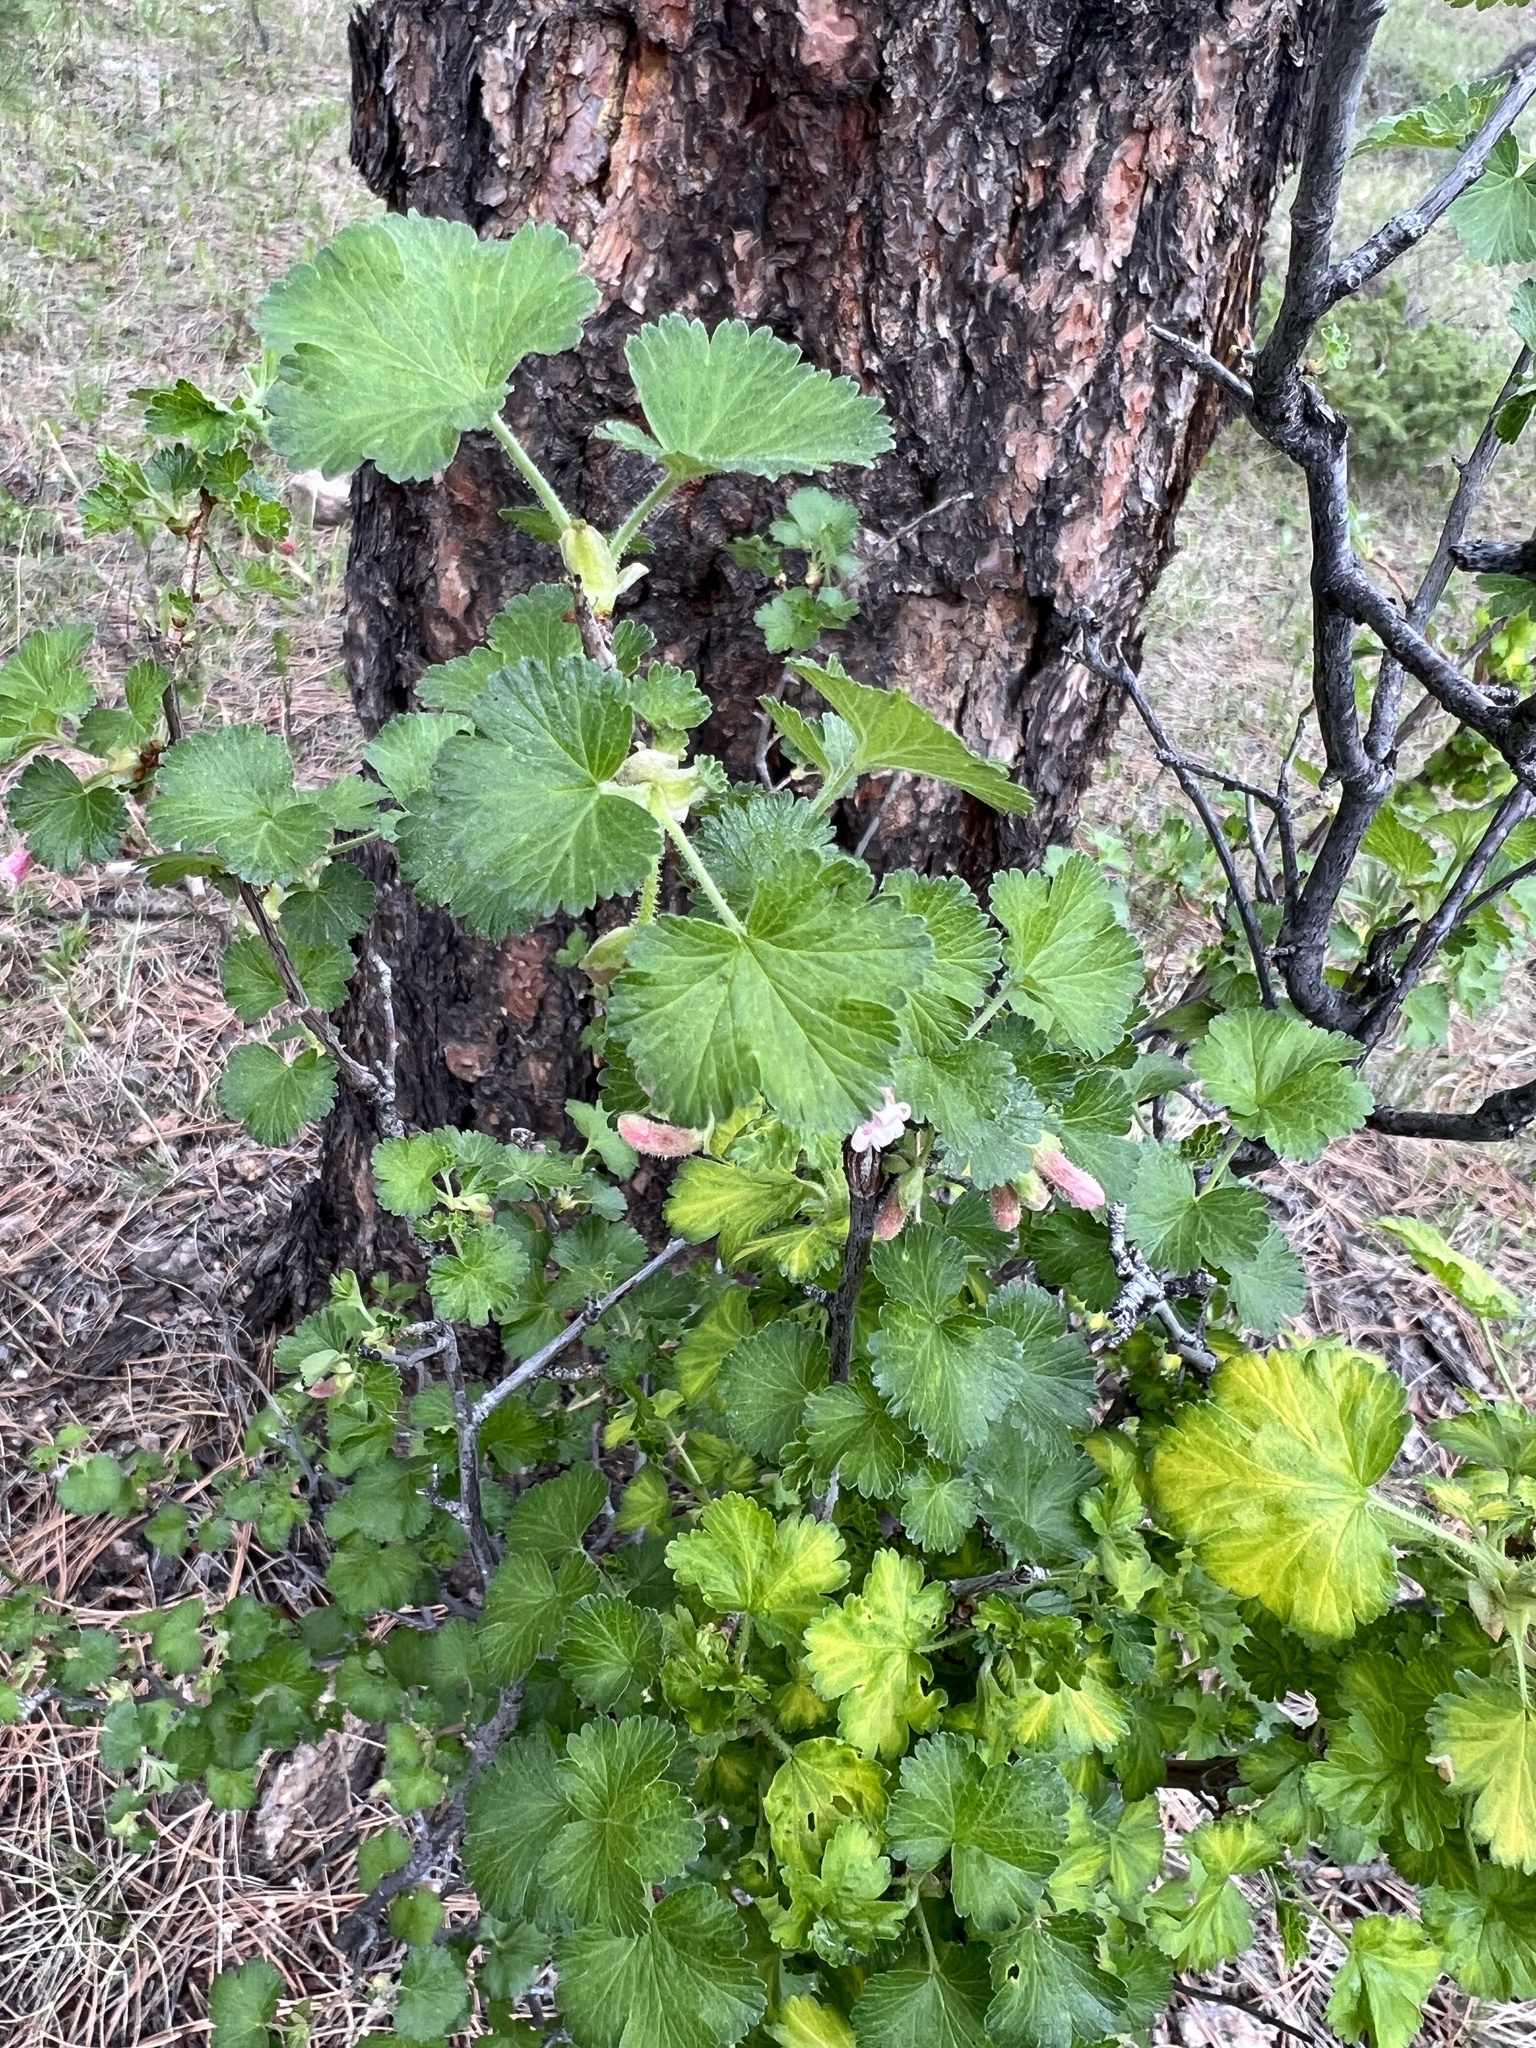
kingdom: Plantae
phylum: Tracheophyta
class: Magnoliopsida
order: Saxifragales
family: Grossulariaceae
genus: Ribes
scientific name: Ribes cereum
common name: Wax currant
